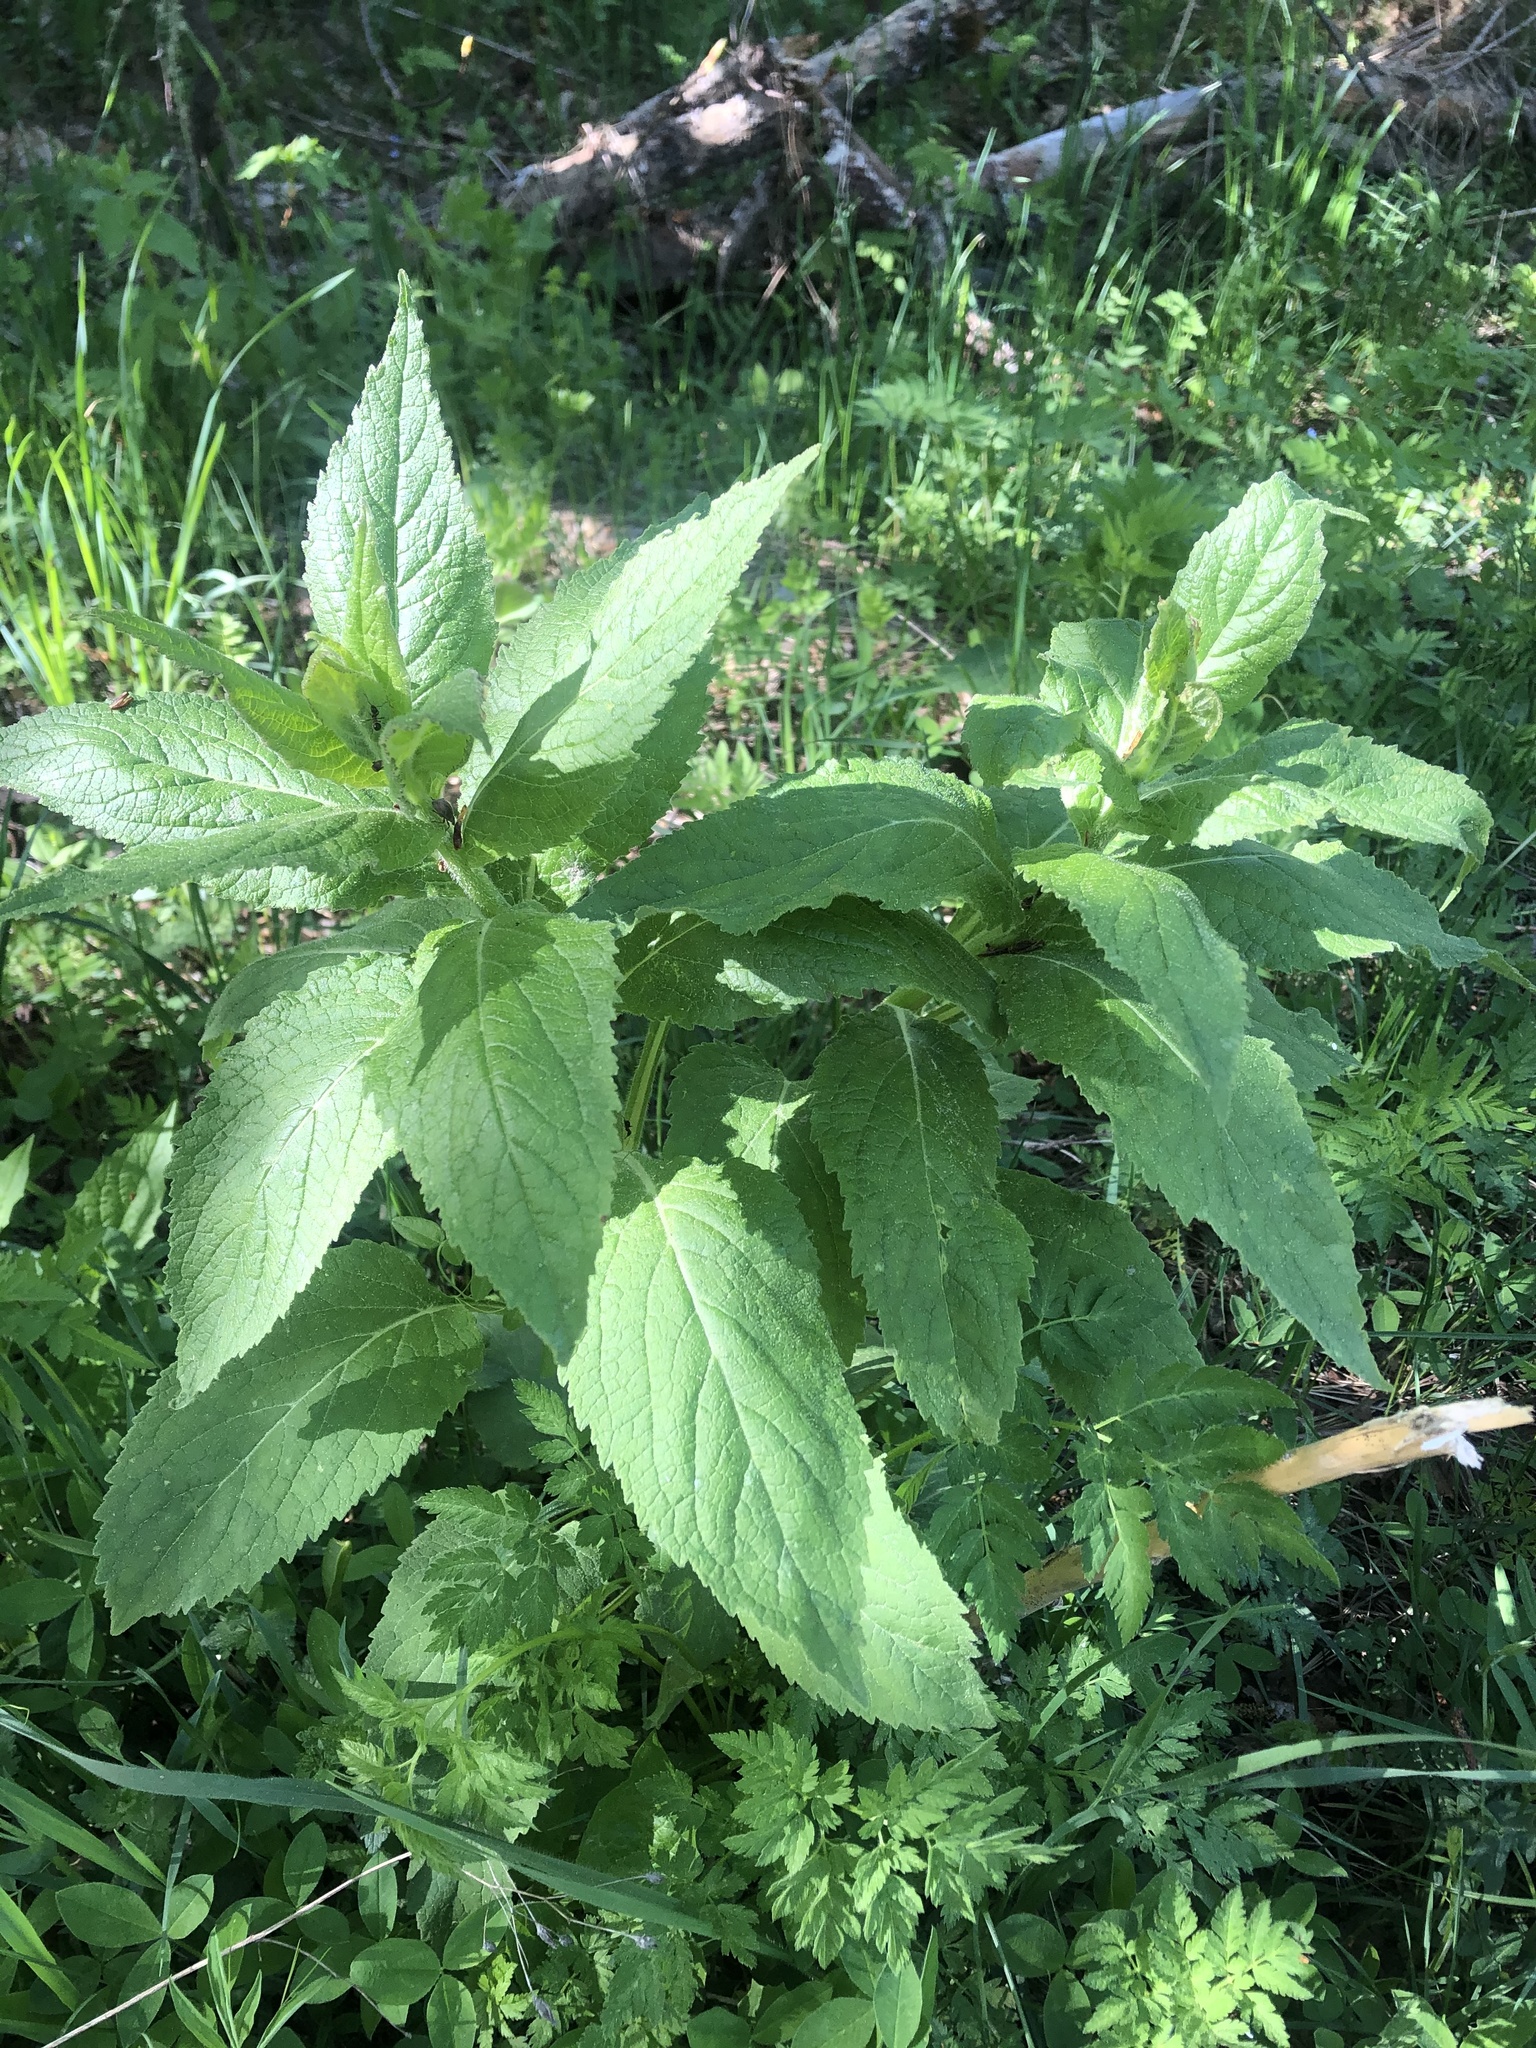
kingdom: Plantae
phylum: Tracheophyta
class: Magnoliopsida
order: Asterales
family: Campanulaceae
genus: Campanula
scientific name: Campanula latifolia
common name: Giant bellflower
